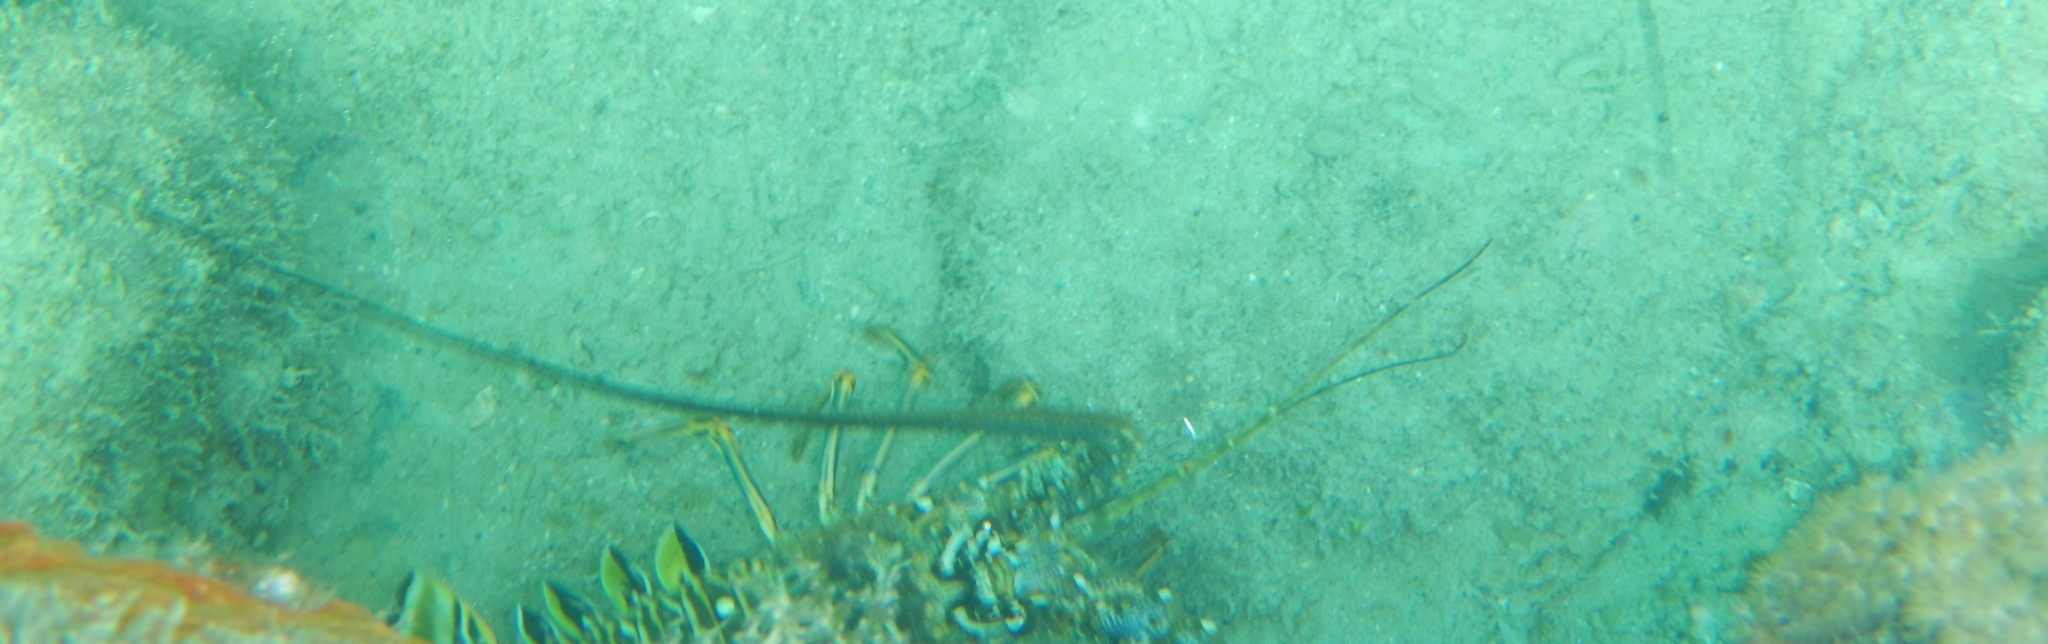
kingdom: Animalia
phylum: Arthropoda
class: Malacostraca
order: Decapoda
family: Palinuridae
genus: Panulirus
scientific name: Panulirus argus
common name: Caribbean spiny lobster
